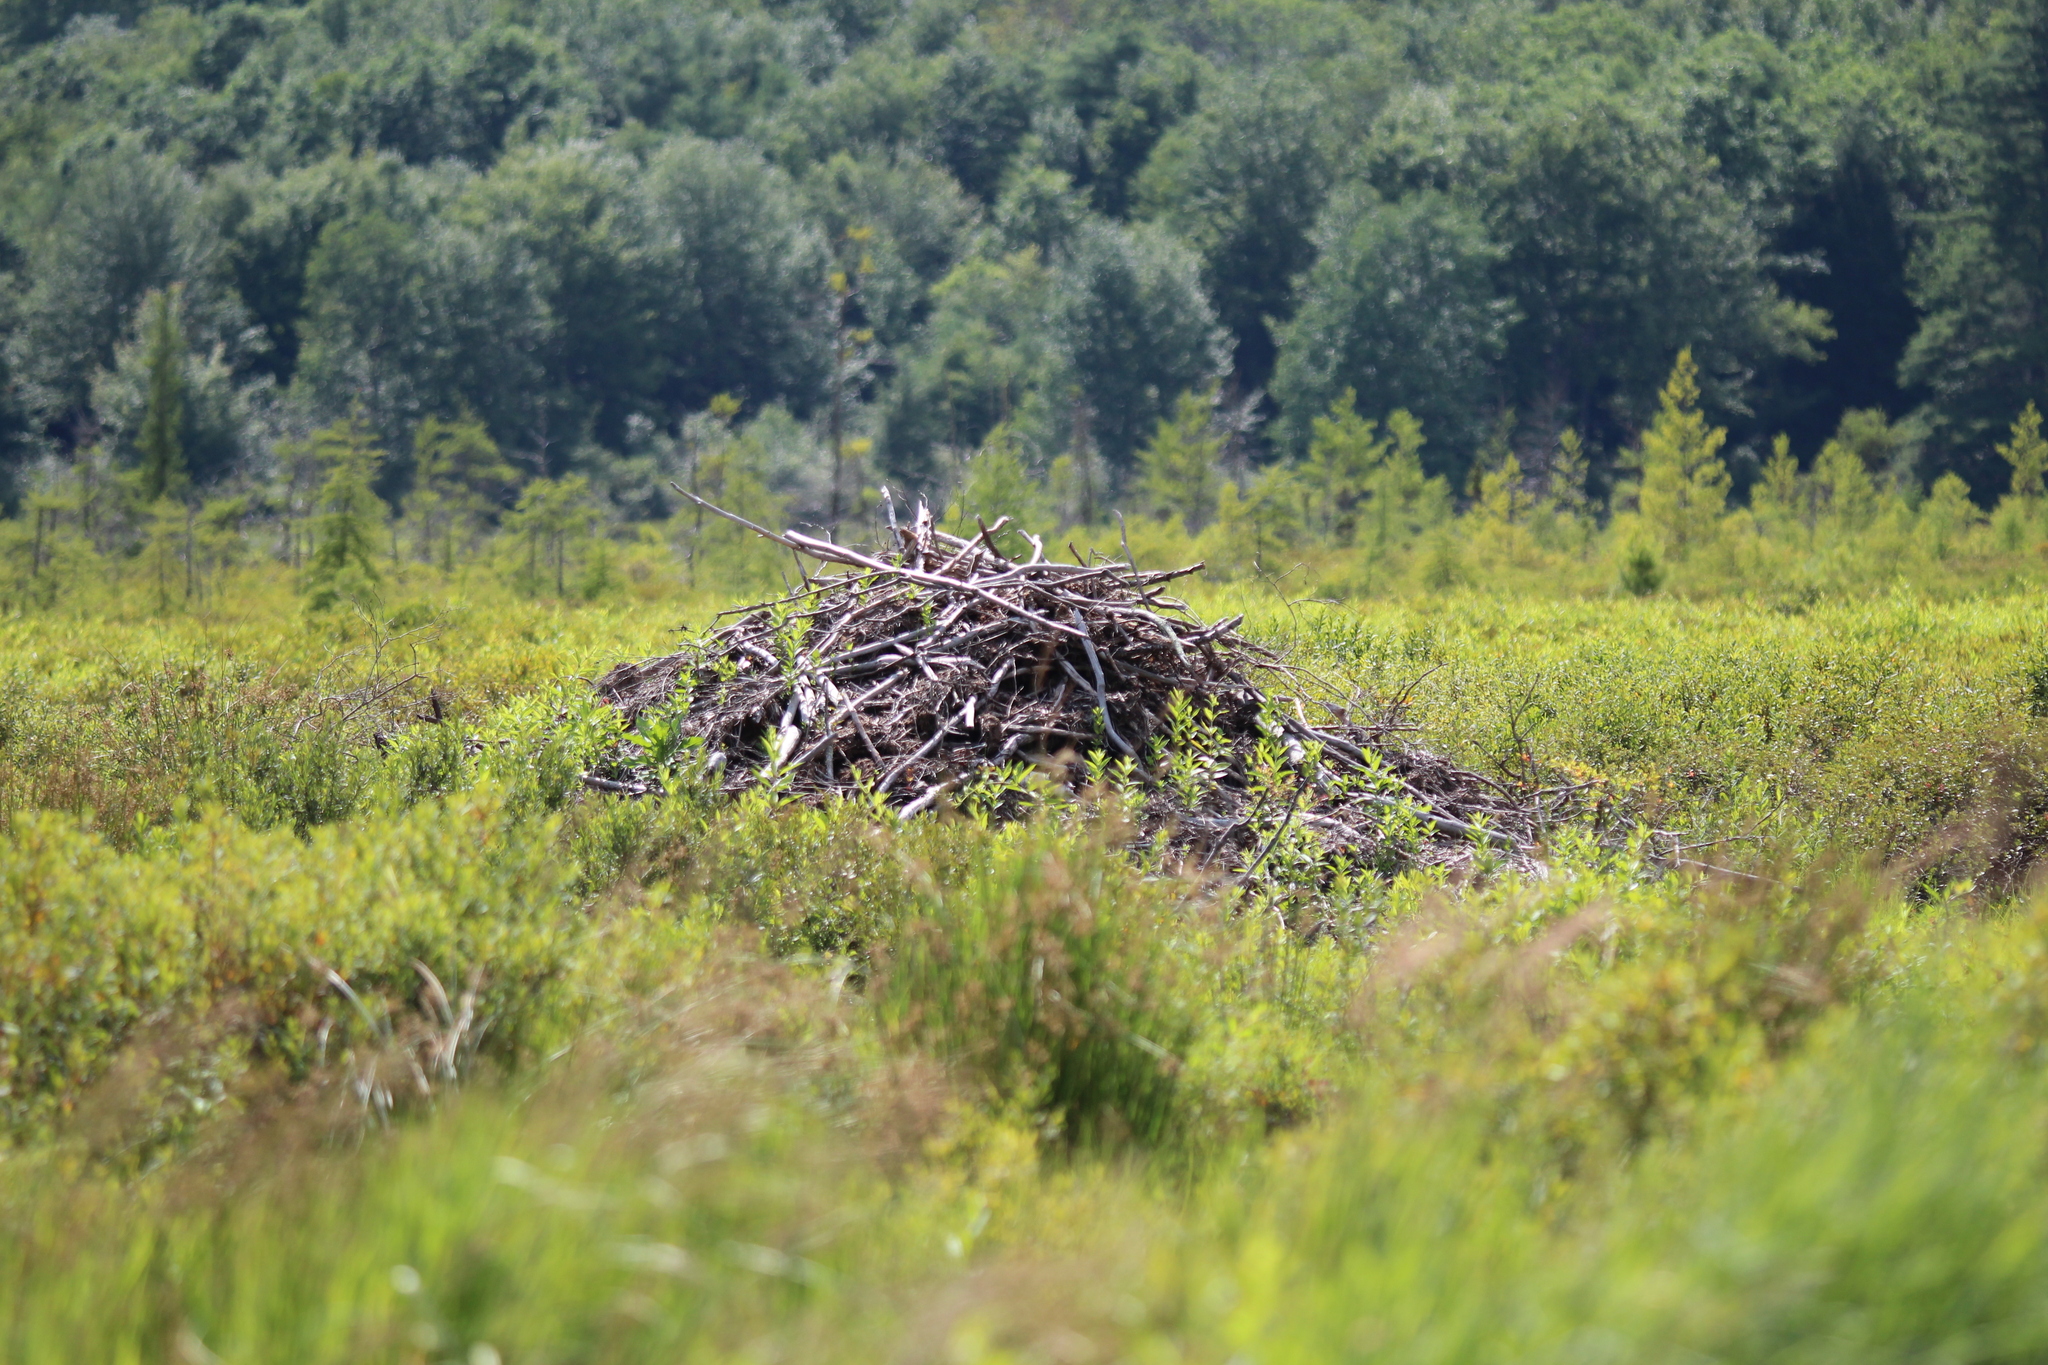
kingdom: Animalia
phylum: Chordata
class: Mammalia
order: Rodentia
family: Castoridae
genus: Castor
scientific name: Castor canadensis
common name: American beaver
